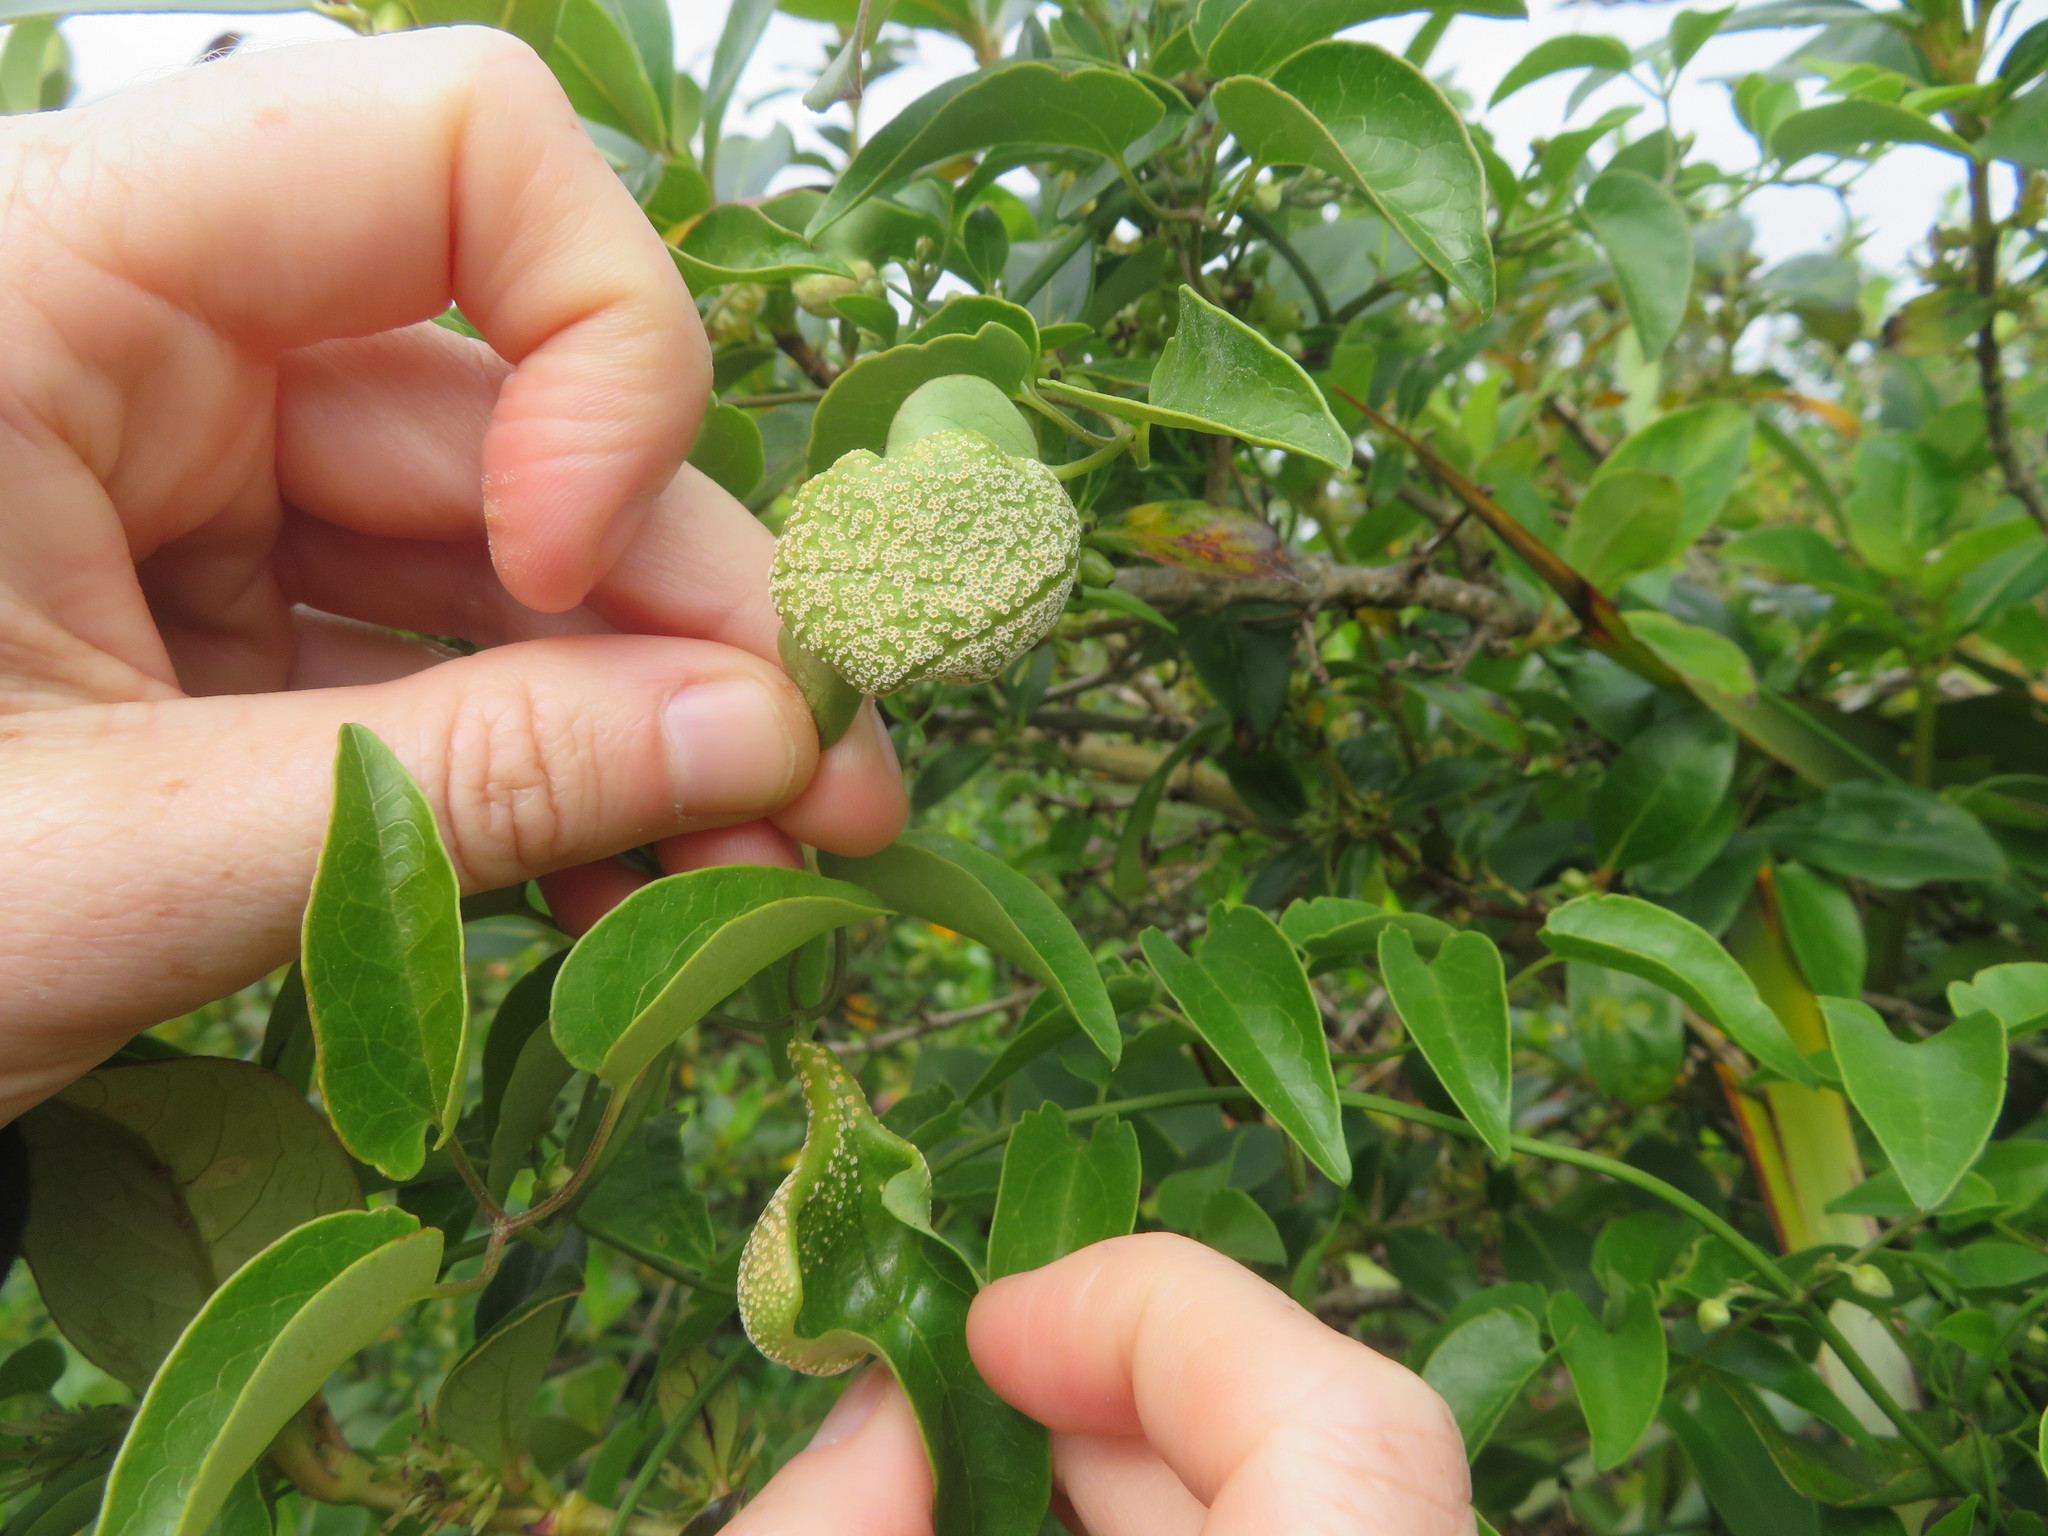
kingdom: Fungi
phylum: Basidiomycota
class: Pucciniomycetes
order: Pucciniales
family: Pucciniaceae
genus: Puccinia
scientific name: Puccinia otagensis
